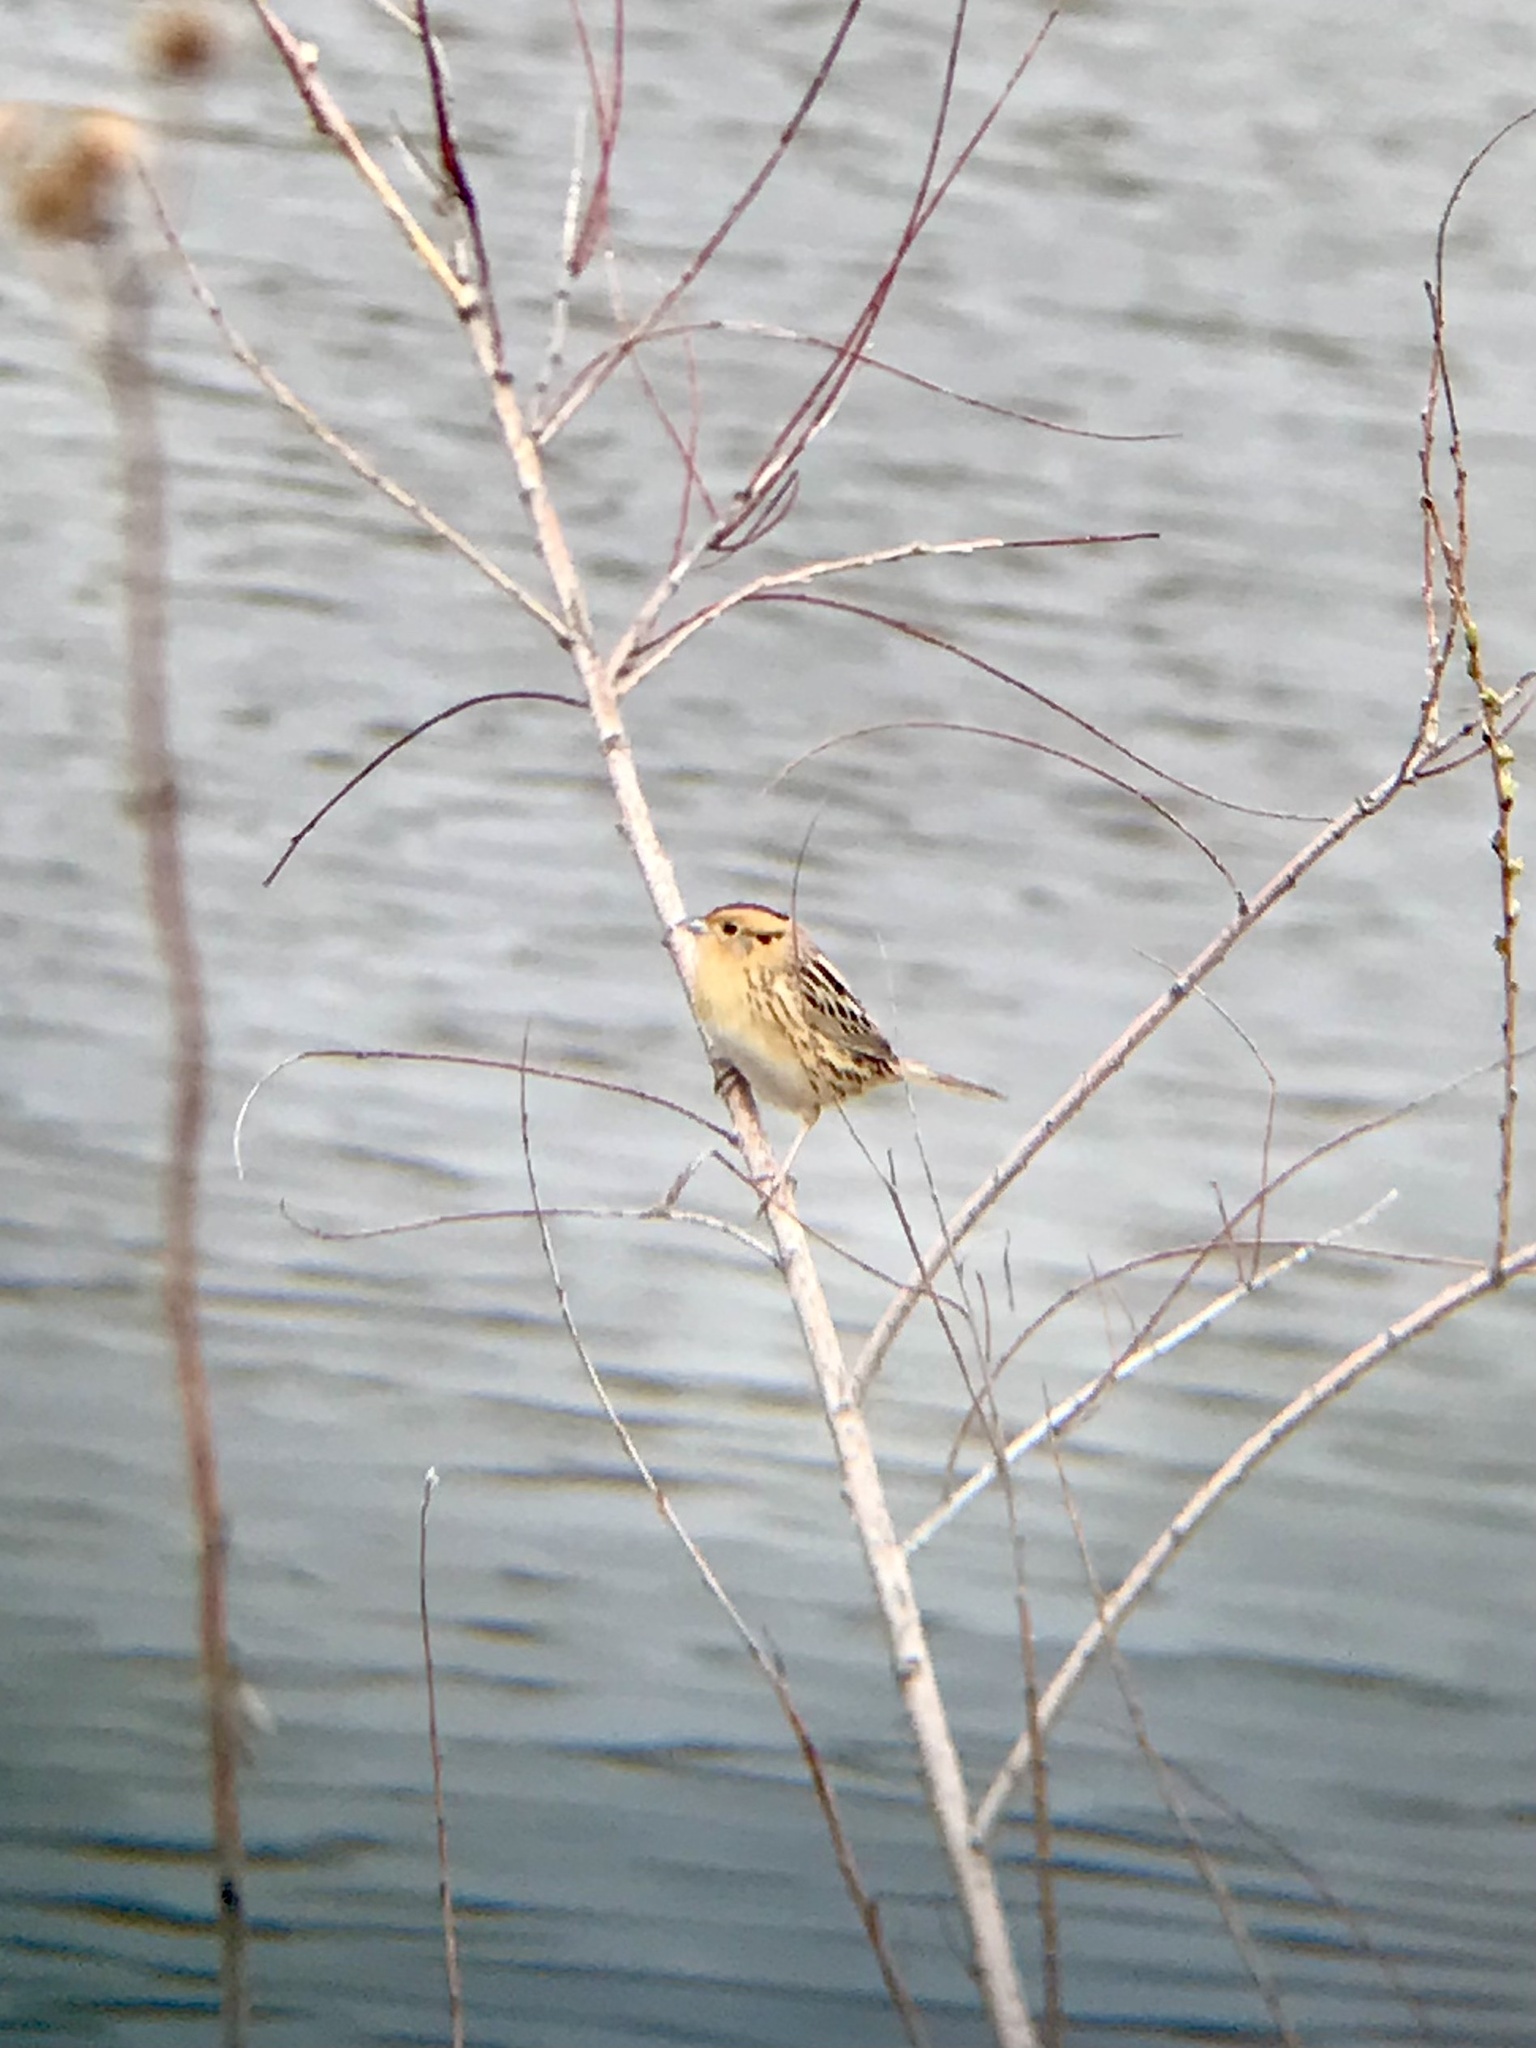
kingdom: Animalia
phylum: Chordata
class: Aves
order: Passeriformes
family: Passerellidae
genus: Ammospiza
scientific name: Ammospiza leconteii
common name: Le conte's sparrow
